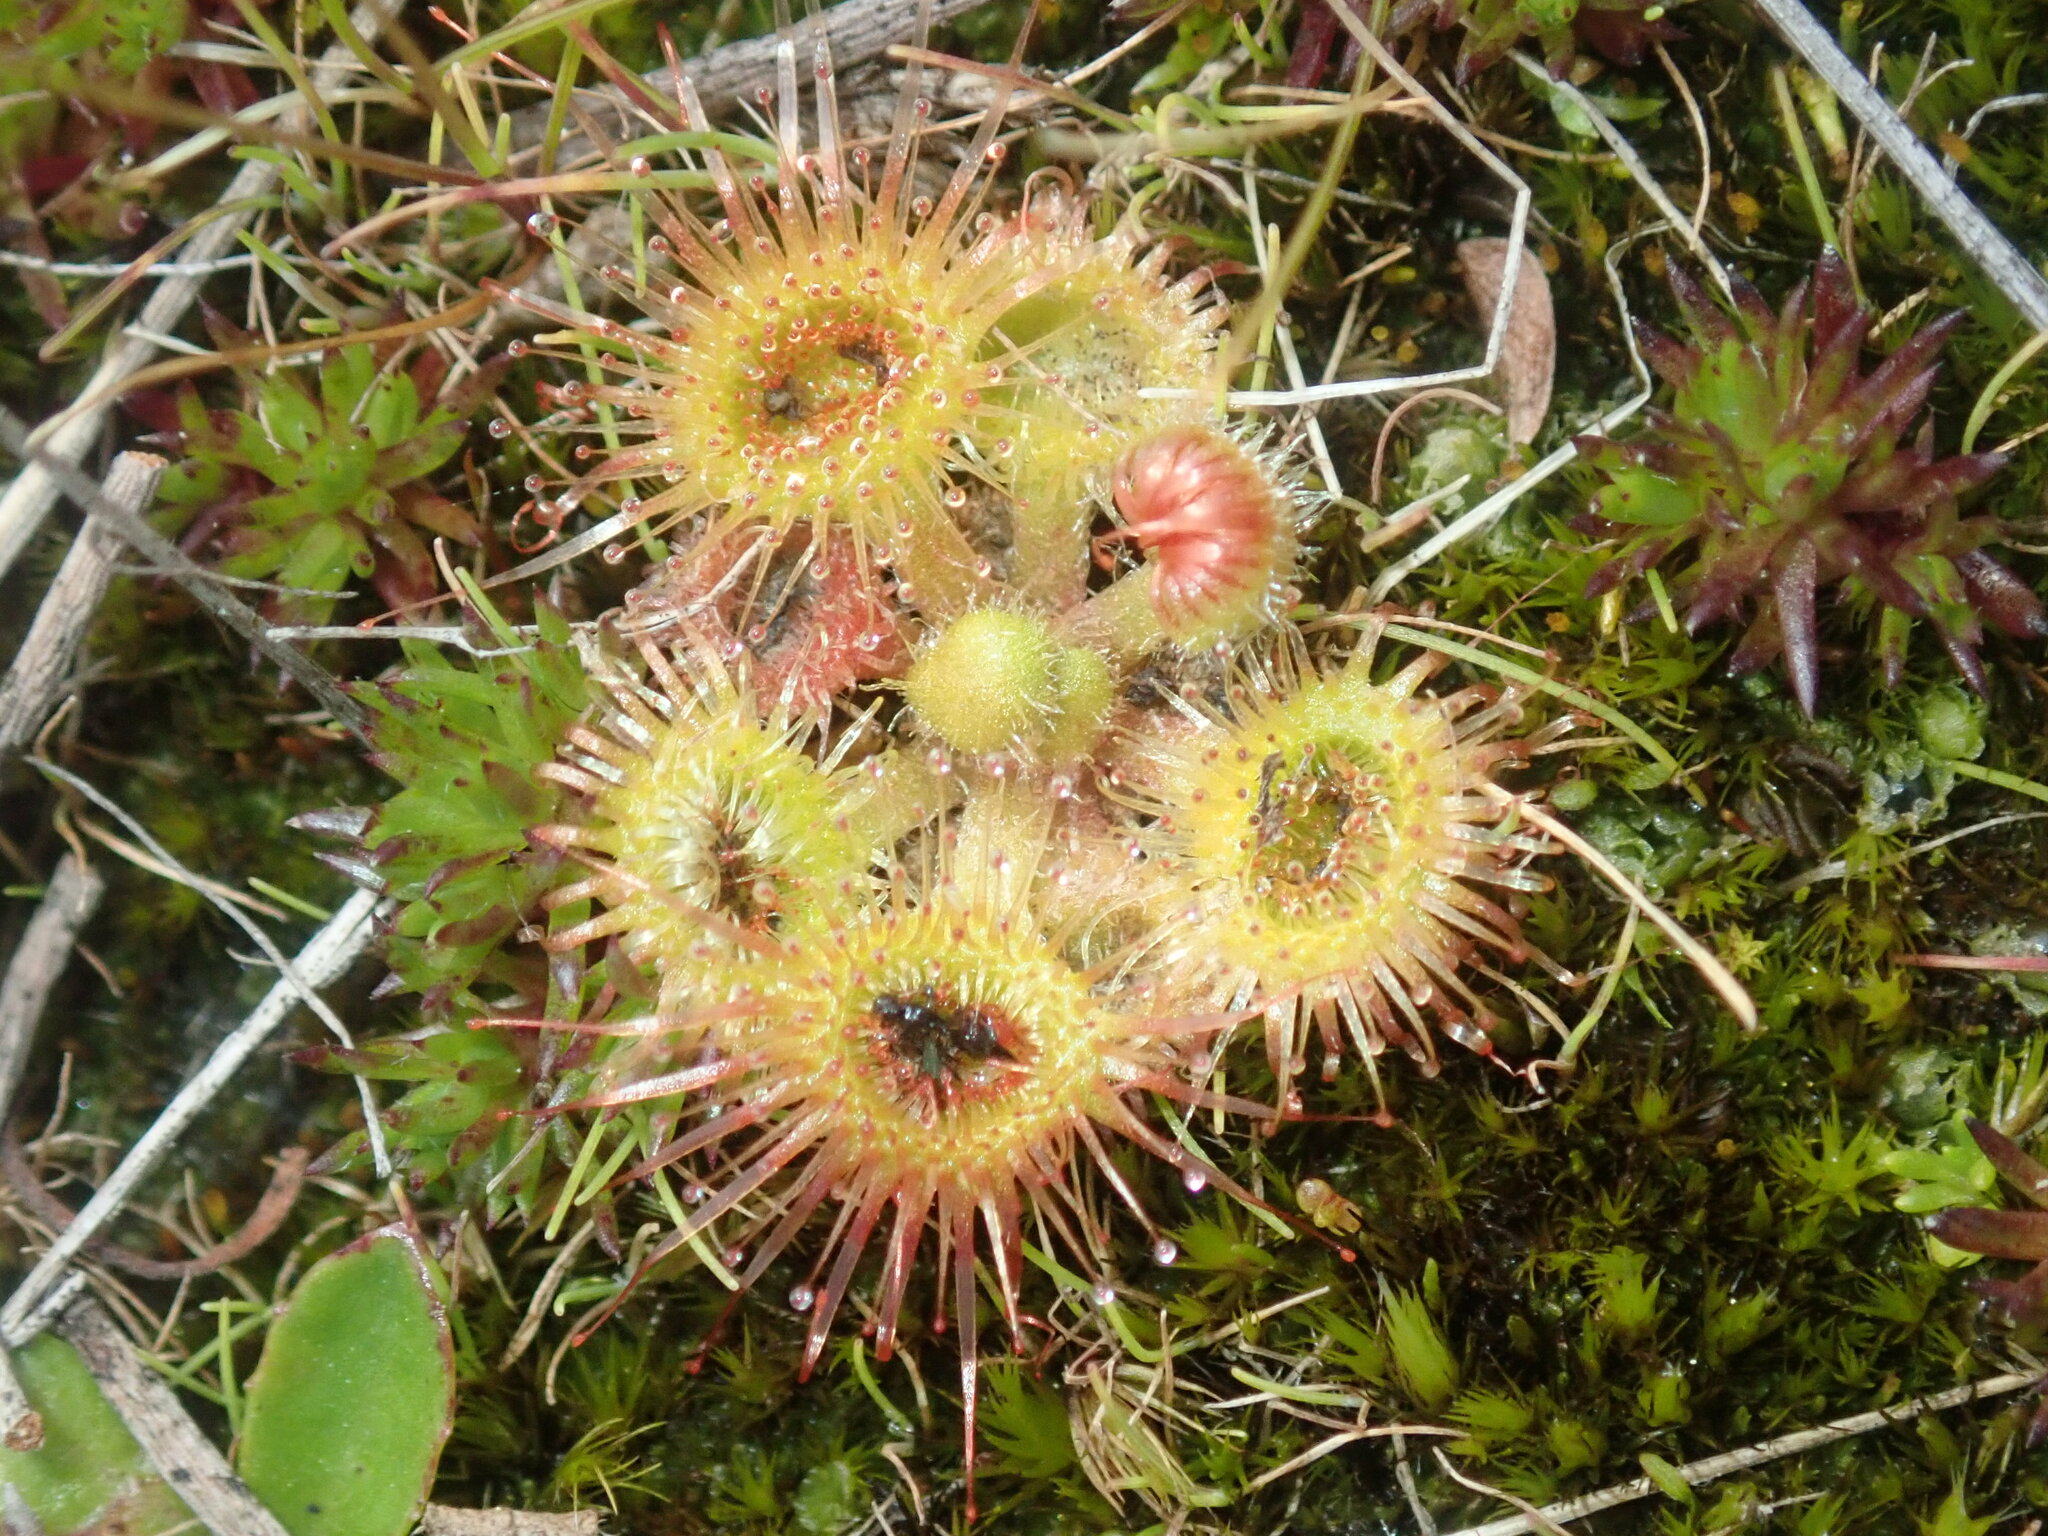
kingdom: Plantae
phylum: Tracheophyta
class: Magnoliopsida
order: Caryophyllales
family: Droseraceae
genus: Drosera
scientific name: Drosera glanduligera
